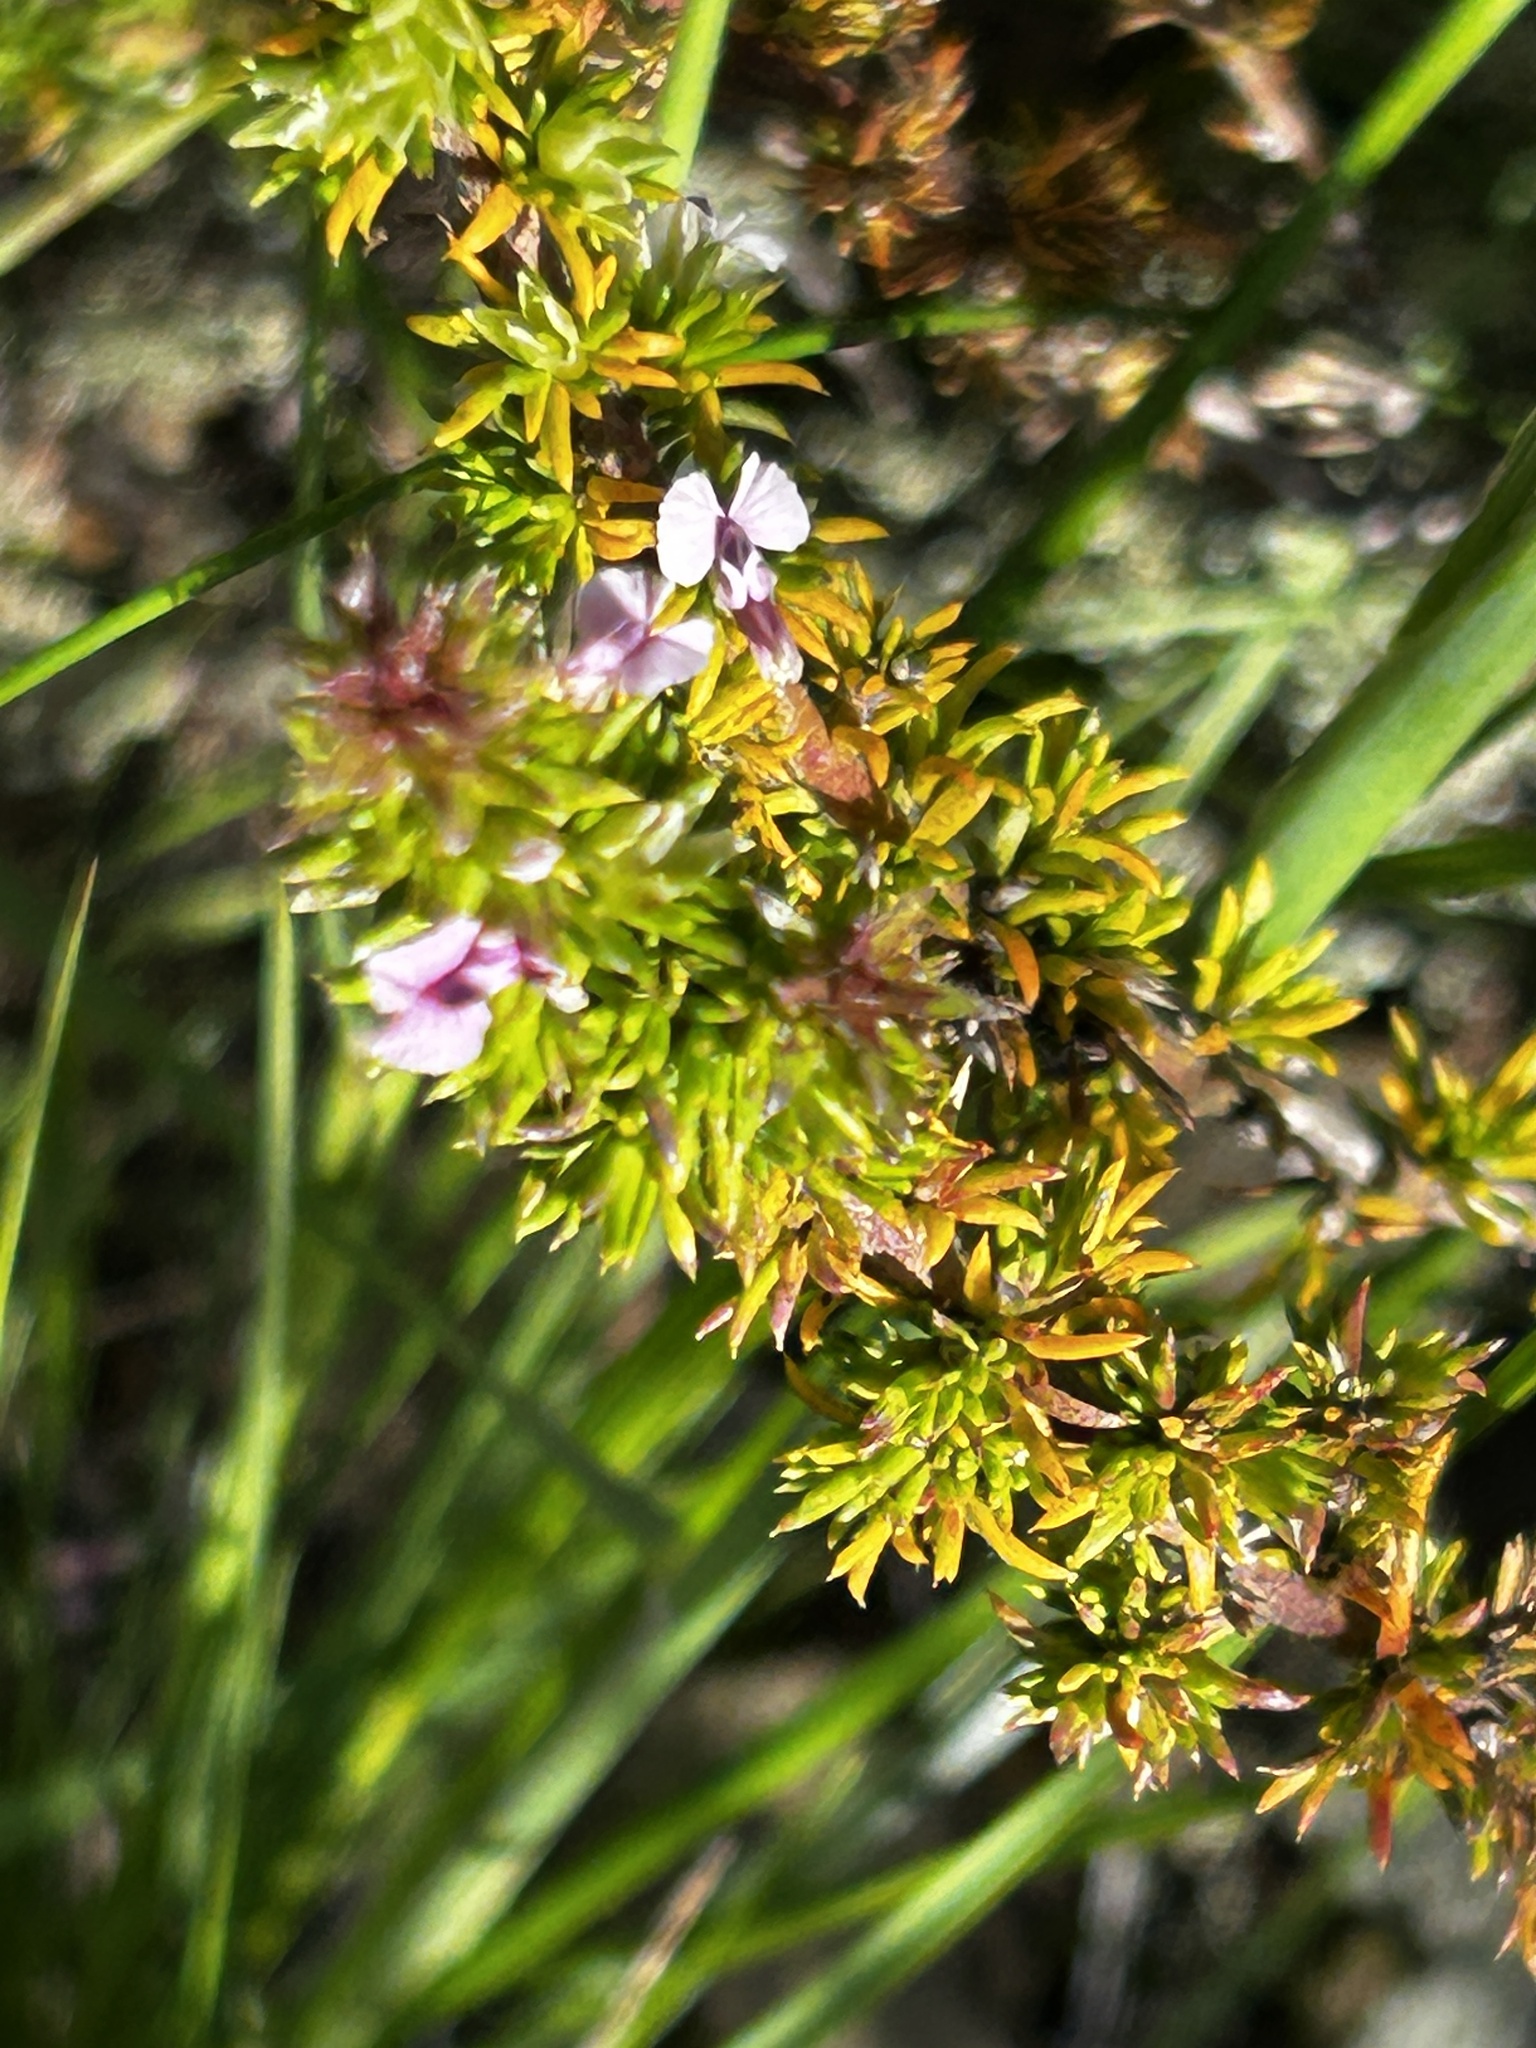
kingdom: Plantae
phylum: Tracheophyta
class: Magnoliopsida
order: Fabales
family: Polygalaceae
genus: Muraltia
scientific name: Muraltia ericifolia
